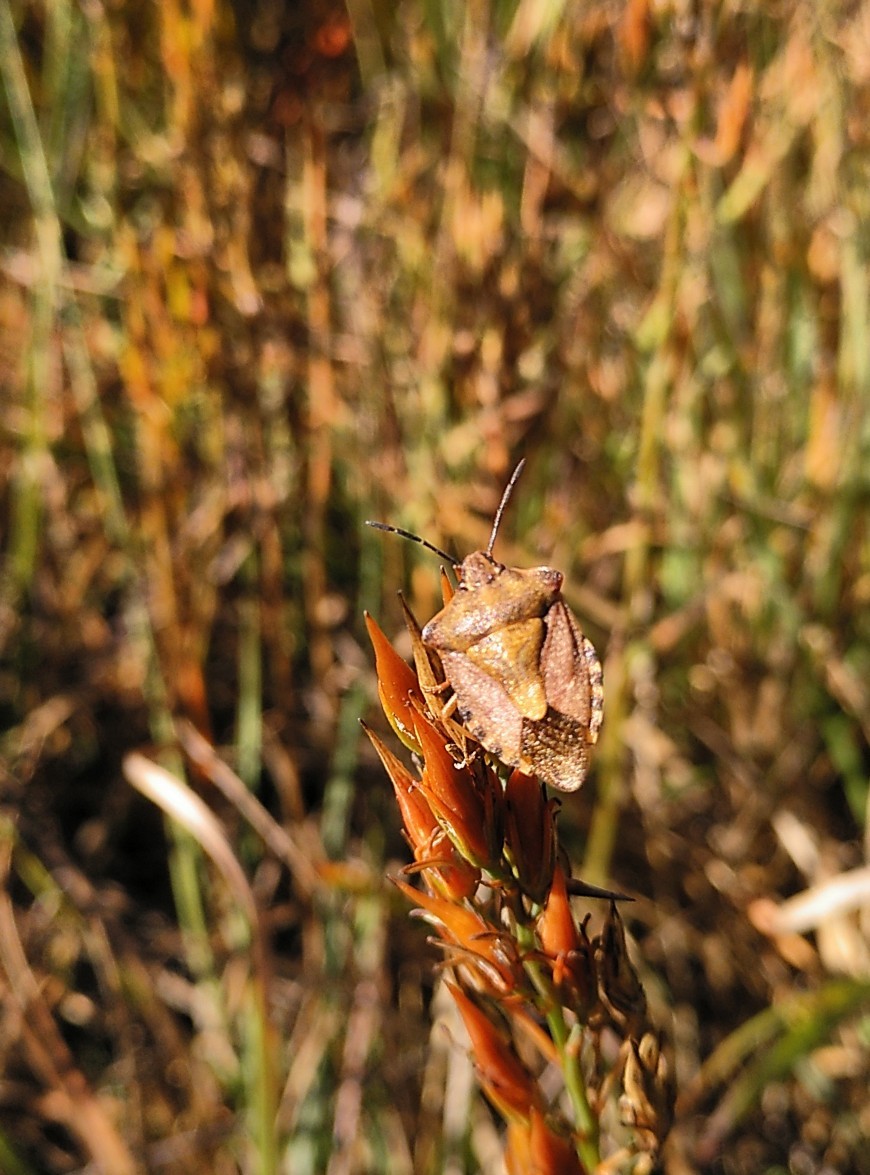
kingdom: Animalia
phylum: Arthropoda
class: Insecta
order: Hemiptera
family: Pentatomidae
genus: Carpocoris
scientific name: Carpocoris purpureipennis
